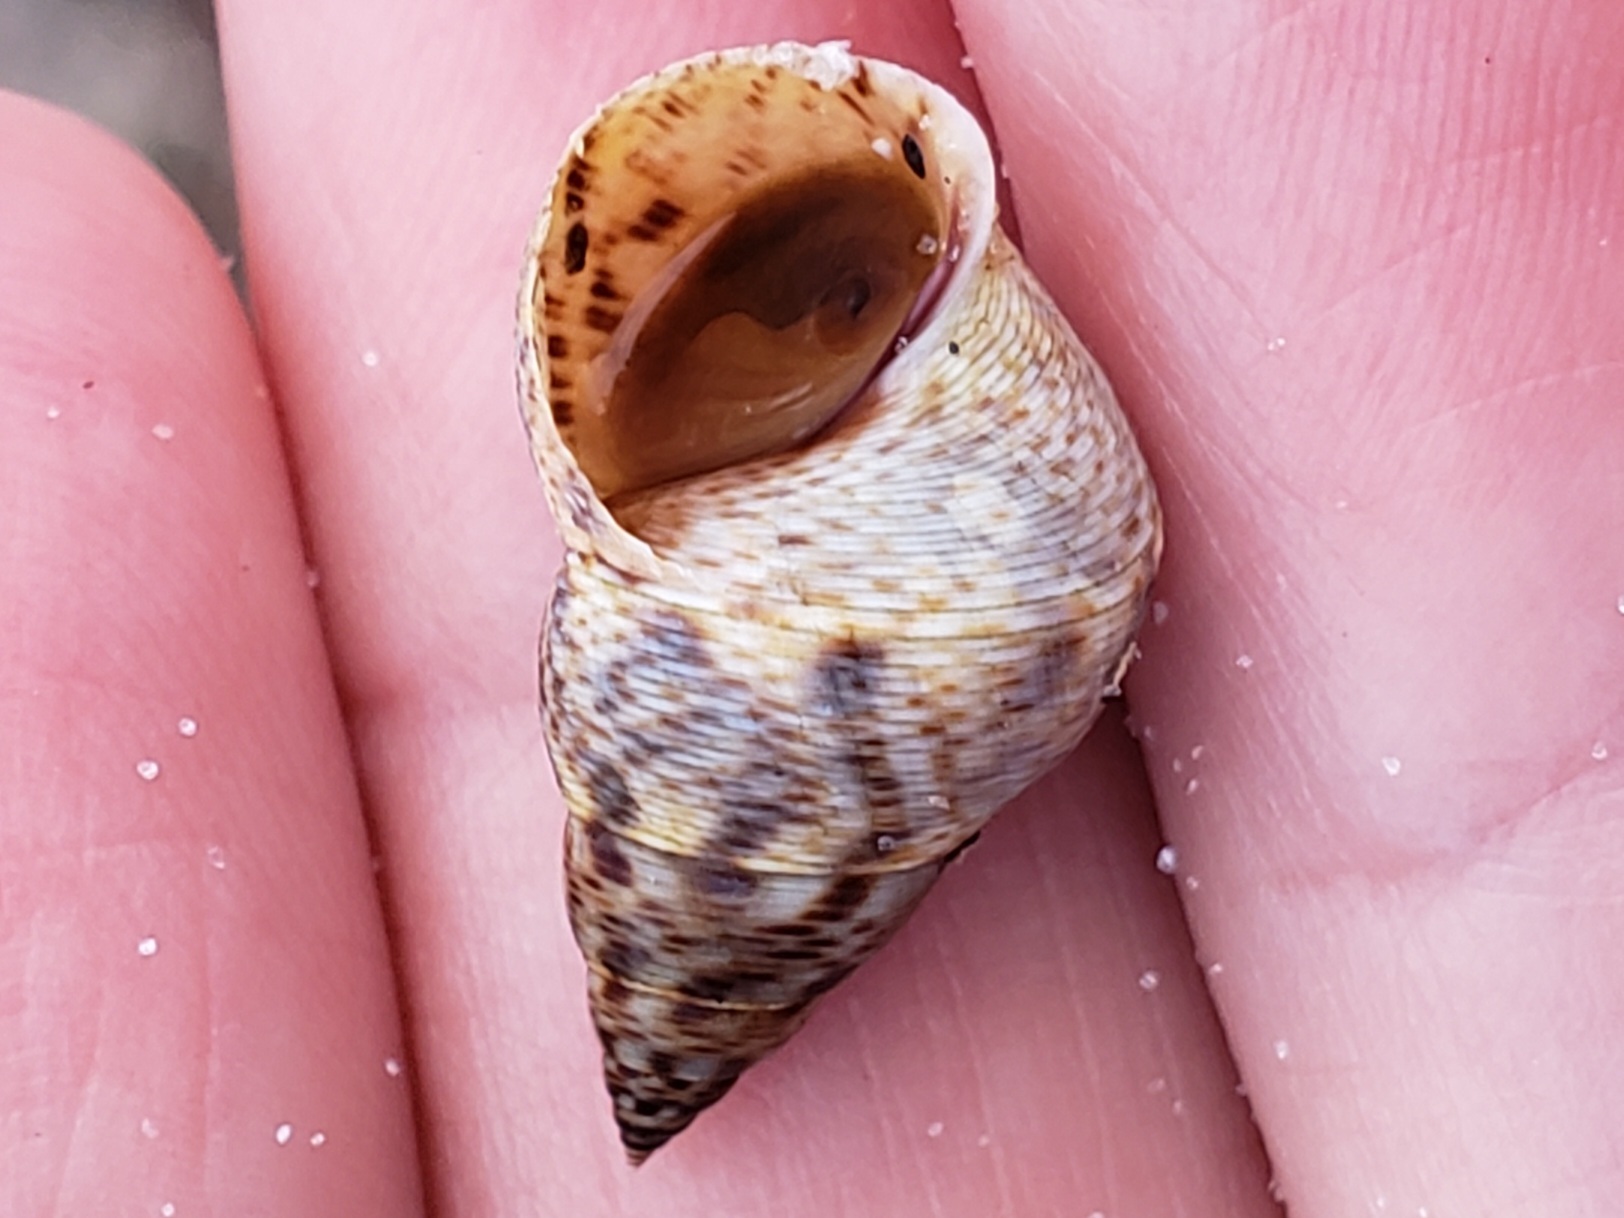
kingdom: Animalia
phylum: Mollusca
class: Gastropoda
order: Littorinimorpha
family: Littorinidae
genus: Littoraria
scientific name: Littoraria angulifera
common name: Mangrove periwinkle
